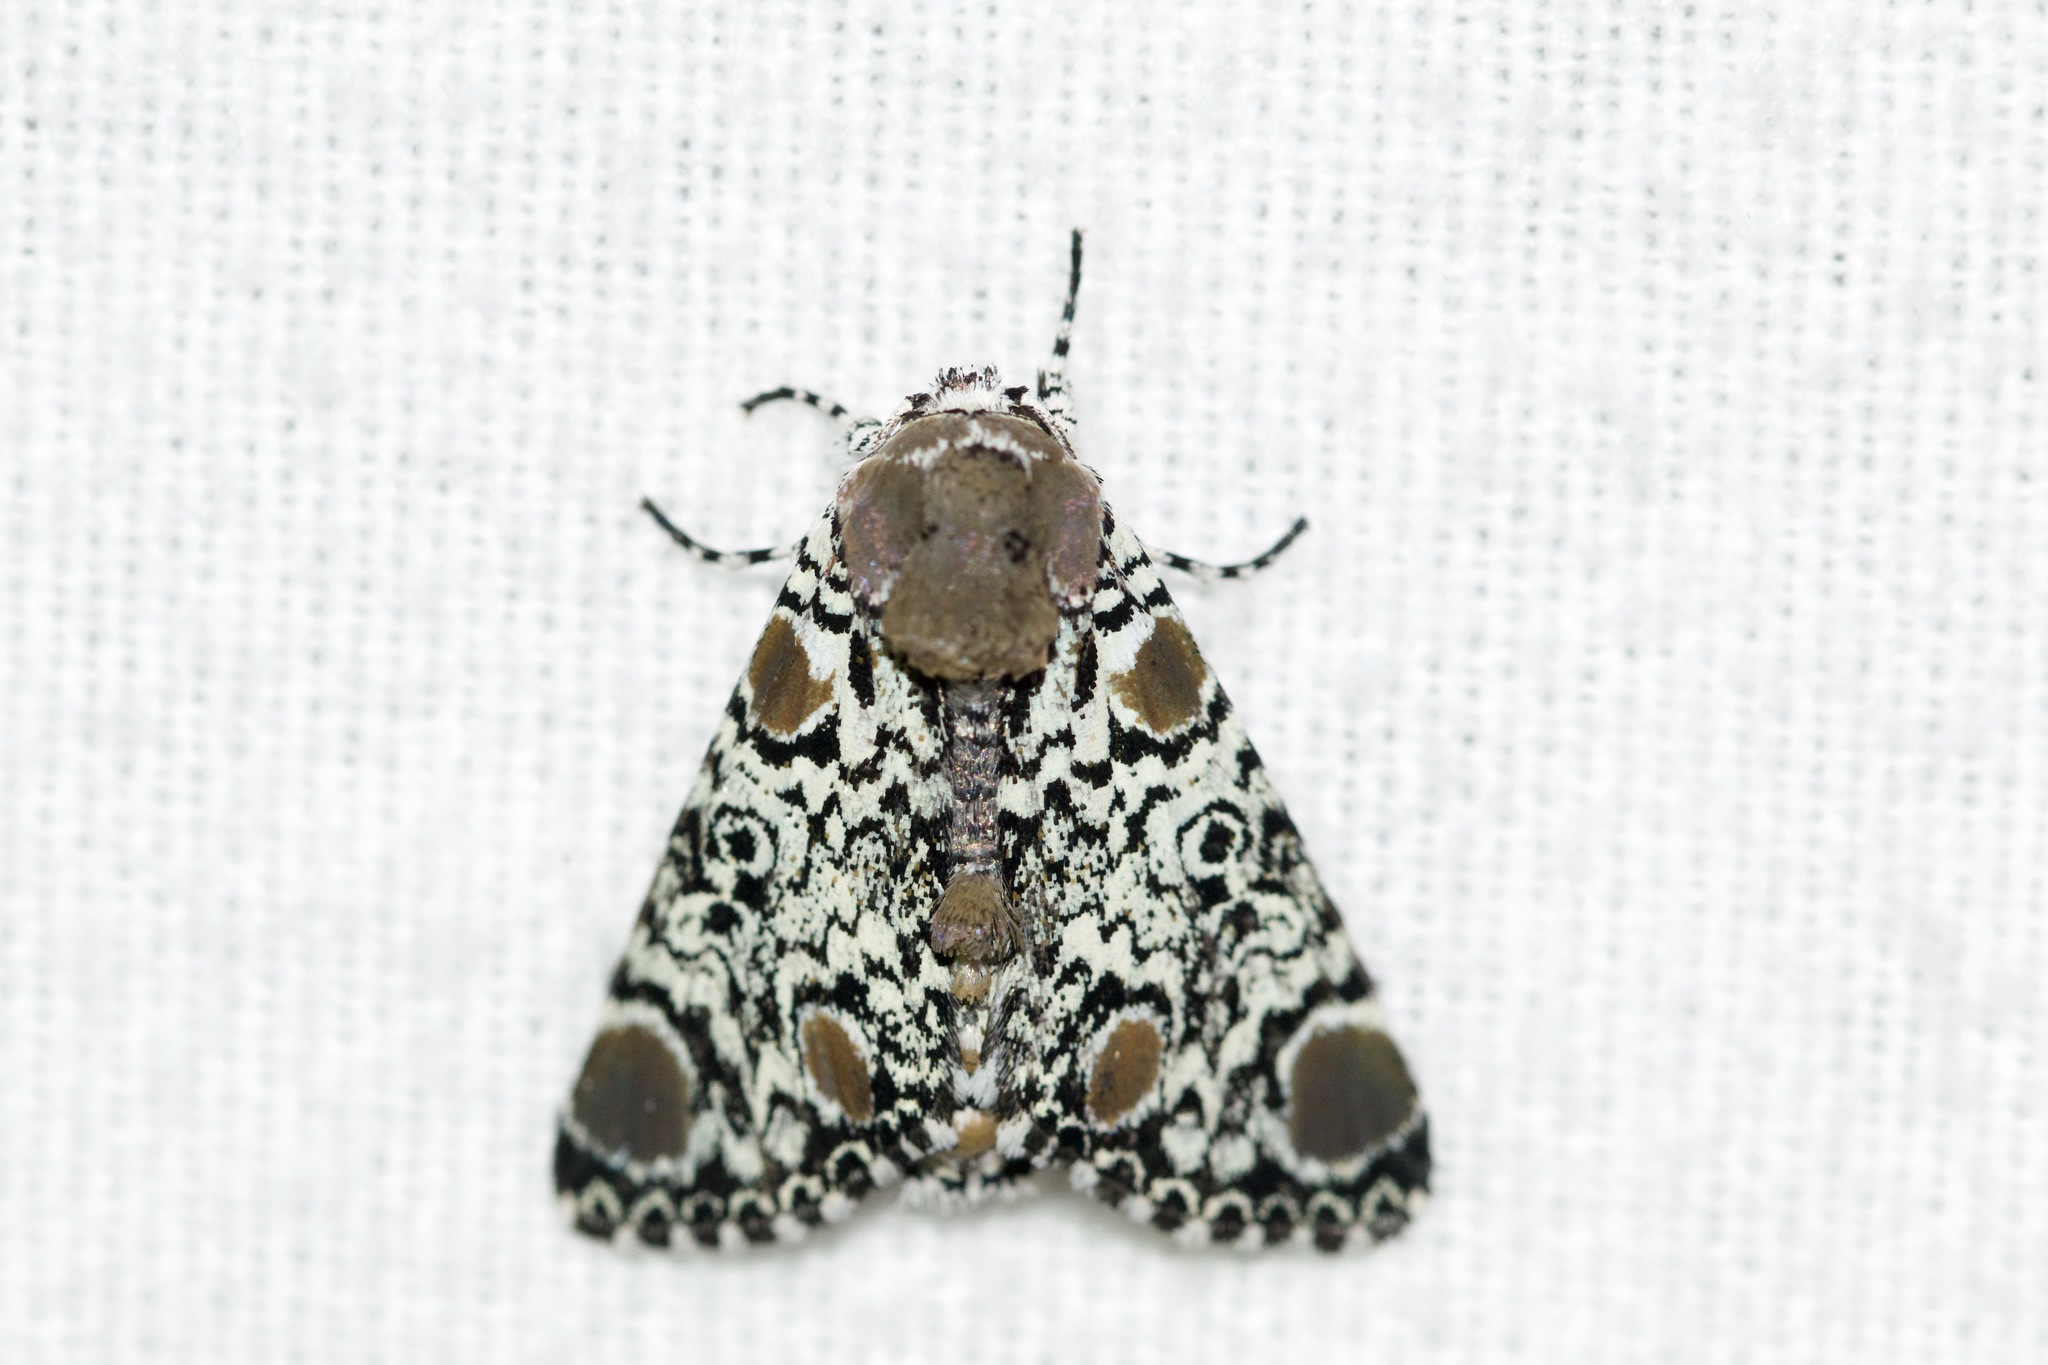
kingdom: Animalia
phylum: Arthropoda
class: Insecta
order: Lepidoptera
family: Noctuidae
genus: Harrisimemna
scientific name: Harrisimemna trisignata
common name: Harris threespot
